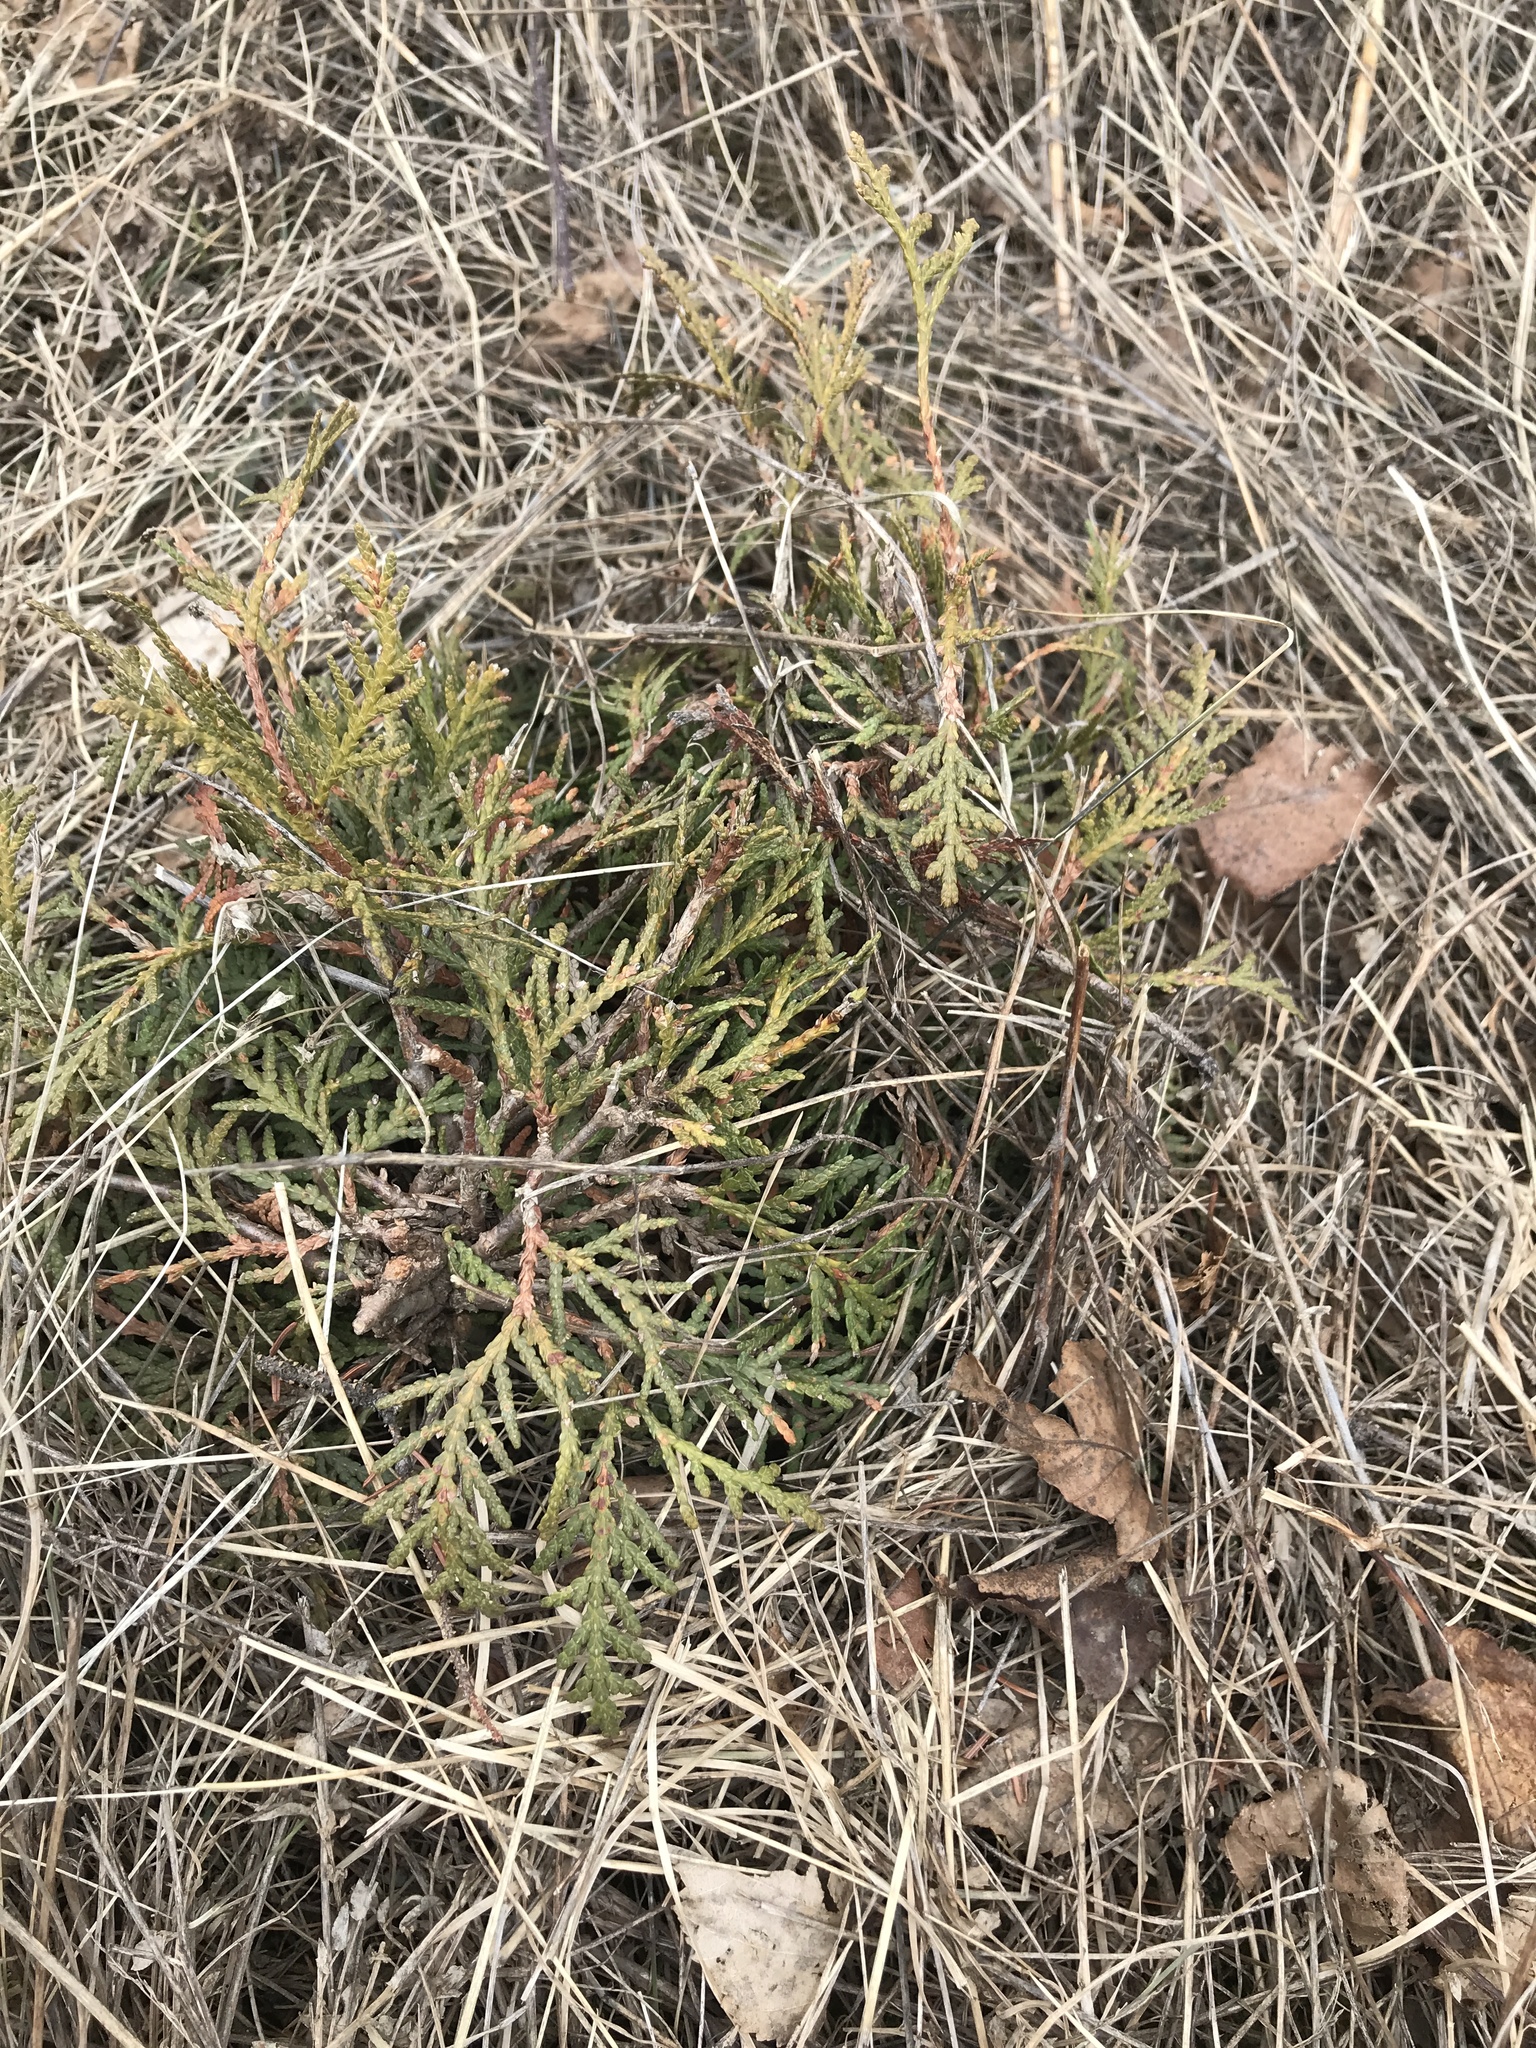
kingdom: Plantae
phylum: Tracheophyta
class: Pinopsida
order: Pinales
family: Cupressaceae
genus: Thuja
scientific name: Thuja occidentalis
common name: Northern white-cedar
